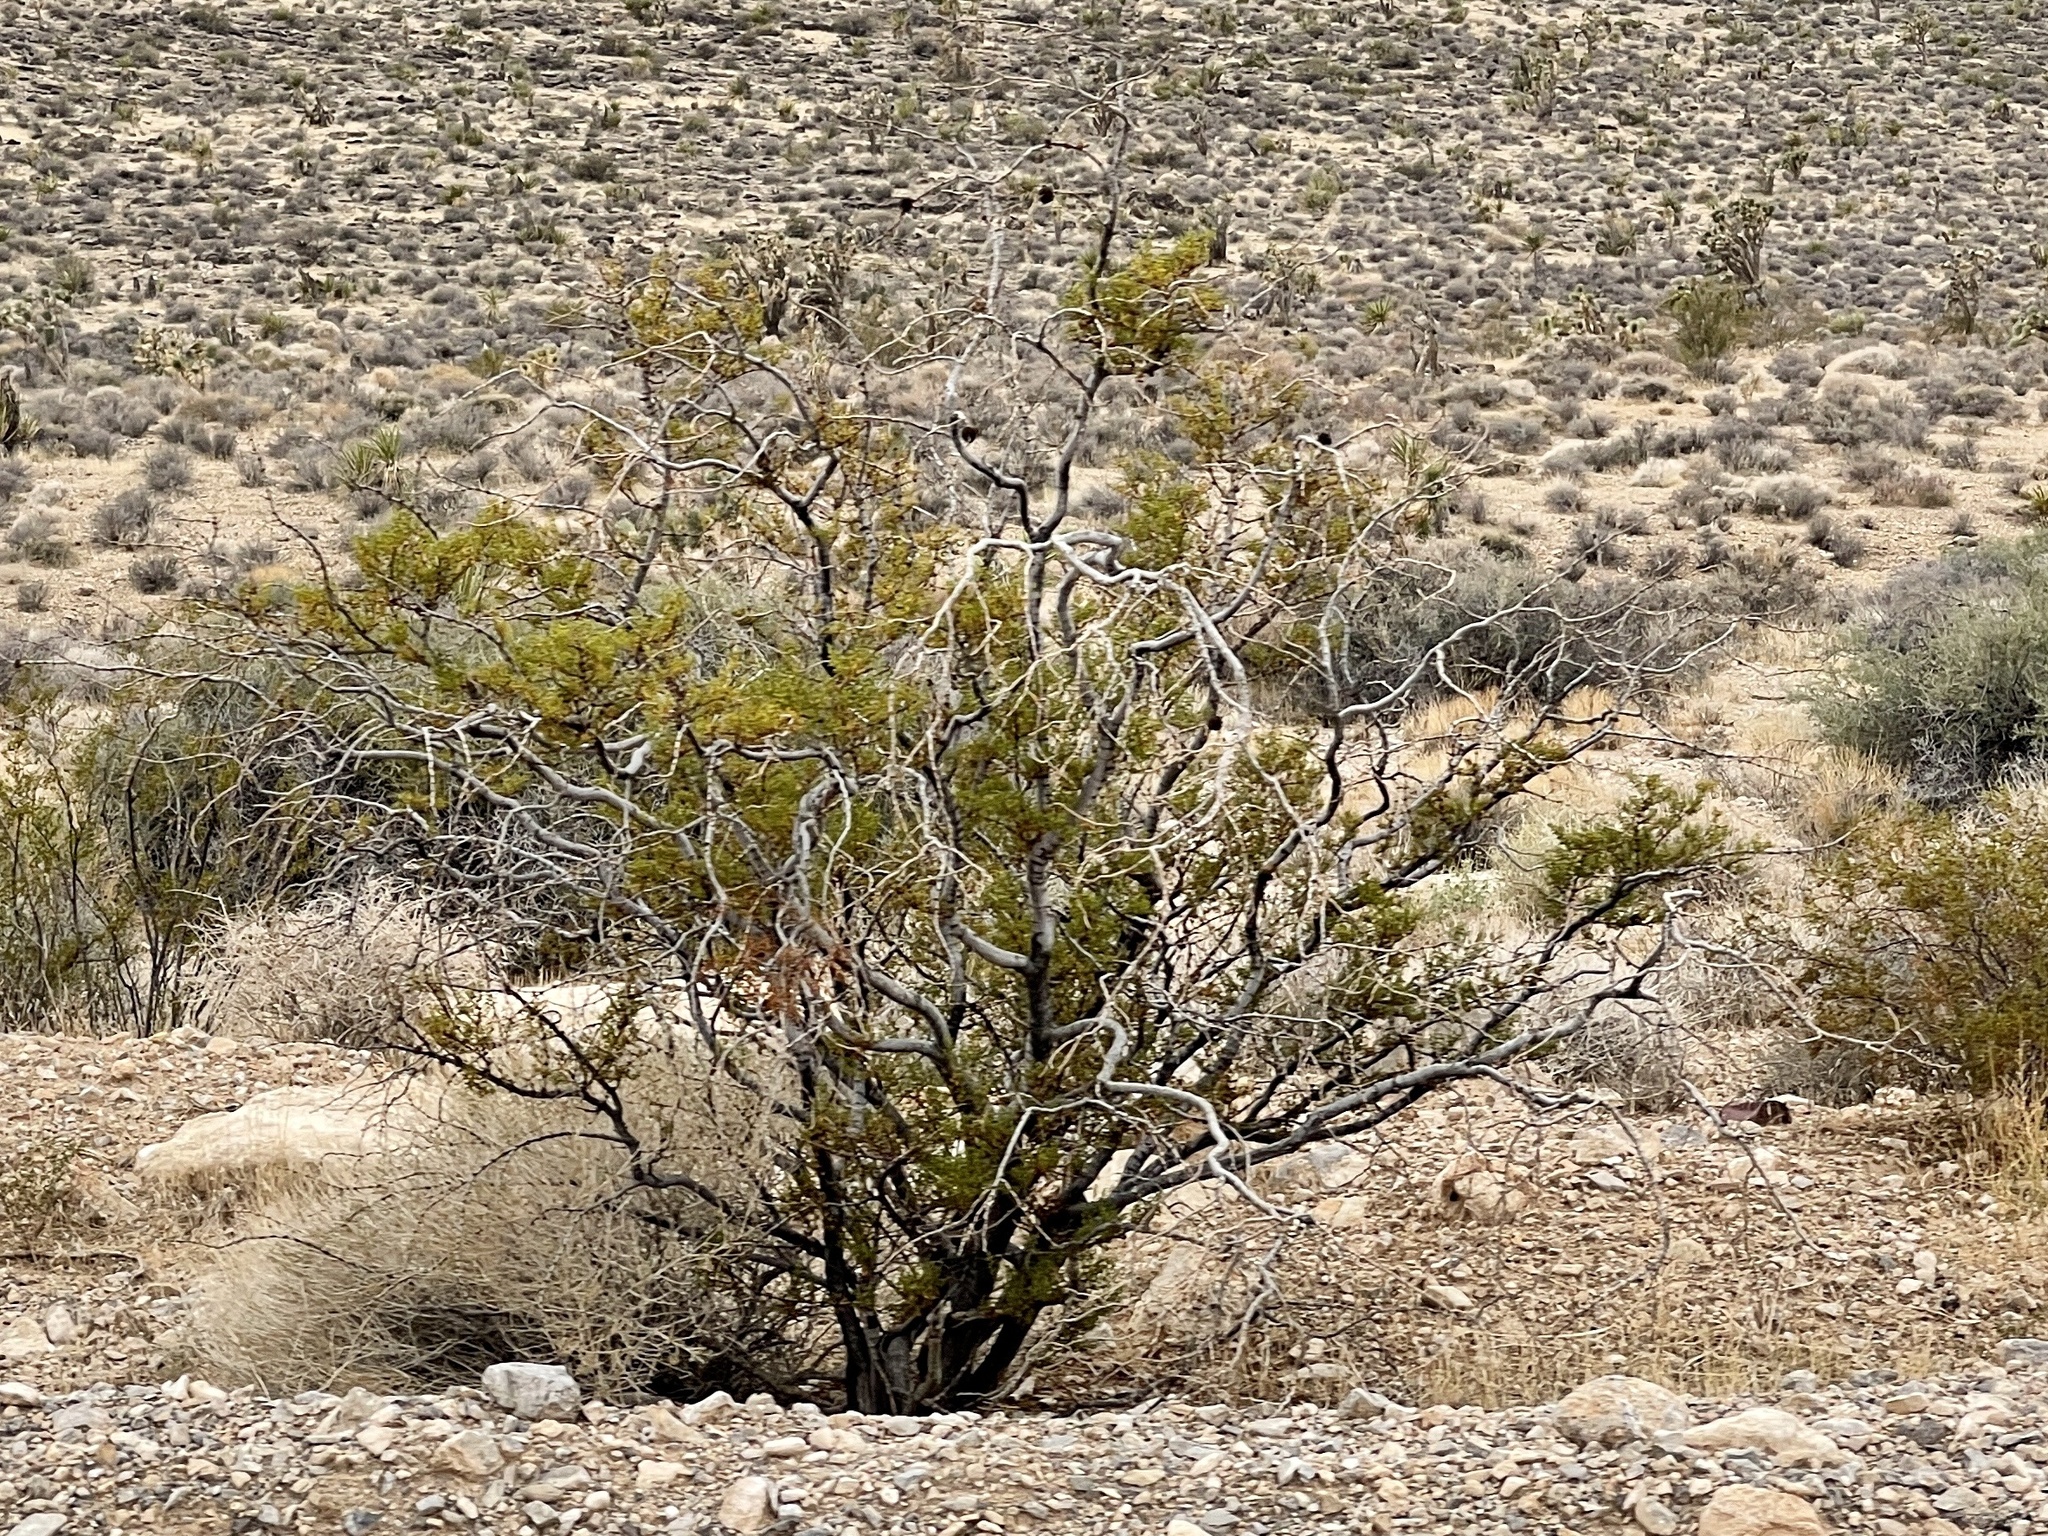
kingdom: Plantae
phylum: Tracheophyta
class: Magnoliopsida
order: Zygophyllales
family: Zygophyllaceae
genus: Larrea
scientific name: Larrea tridentata
